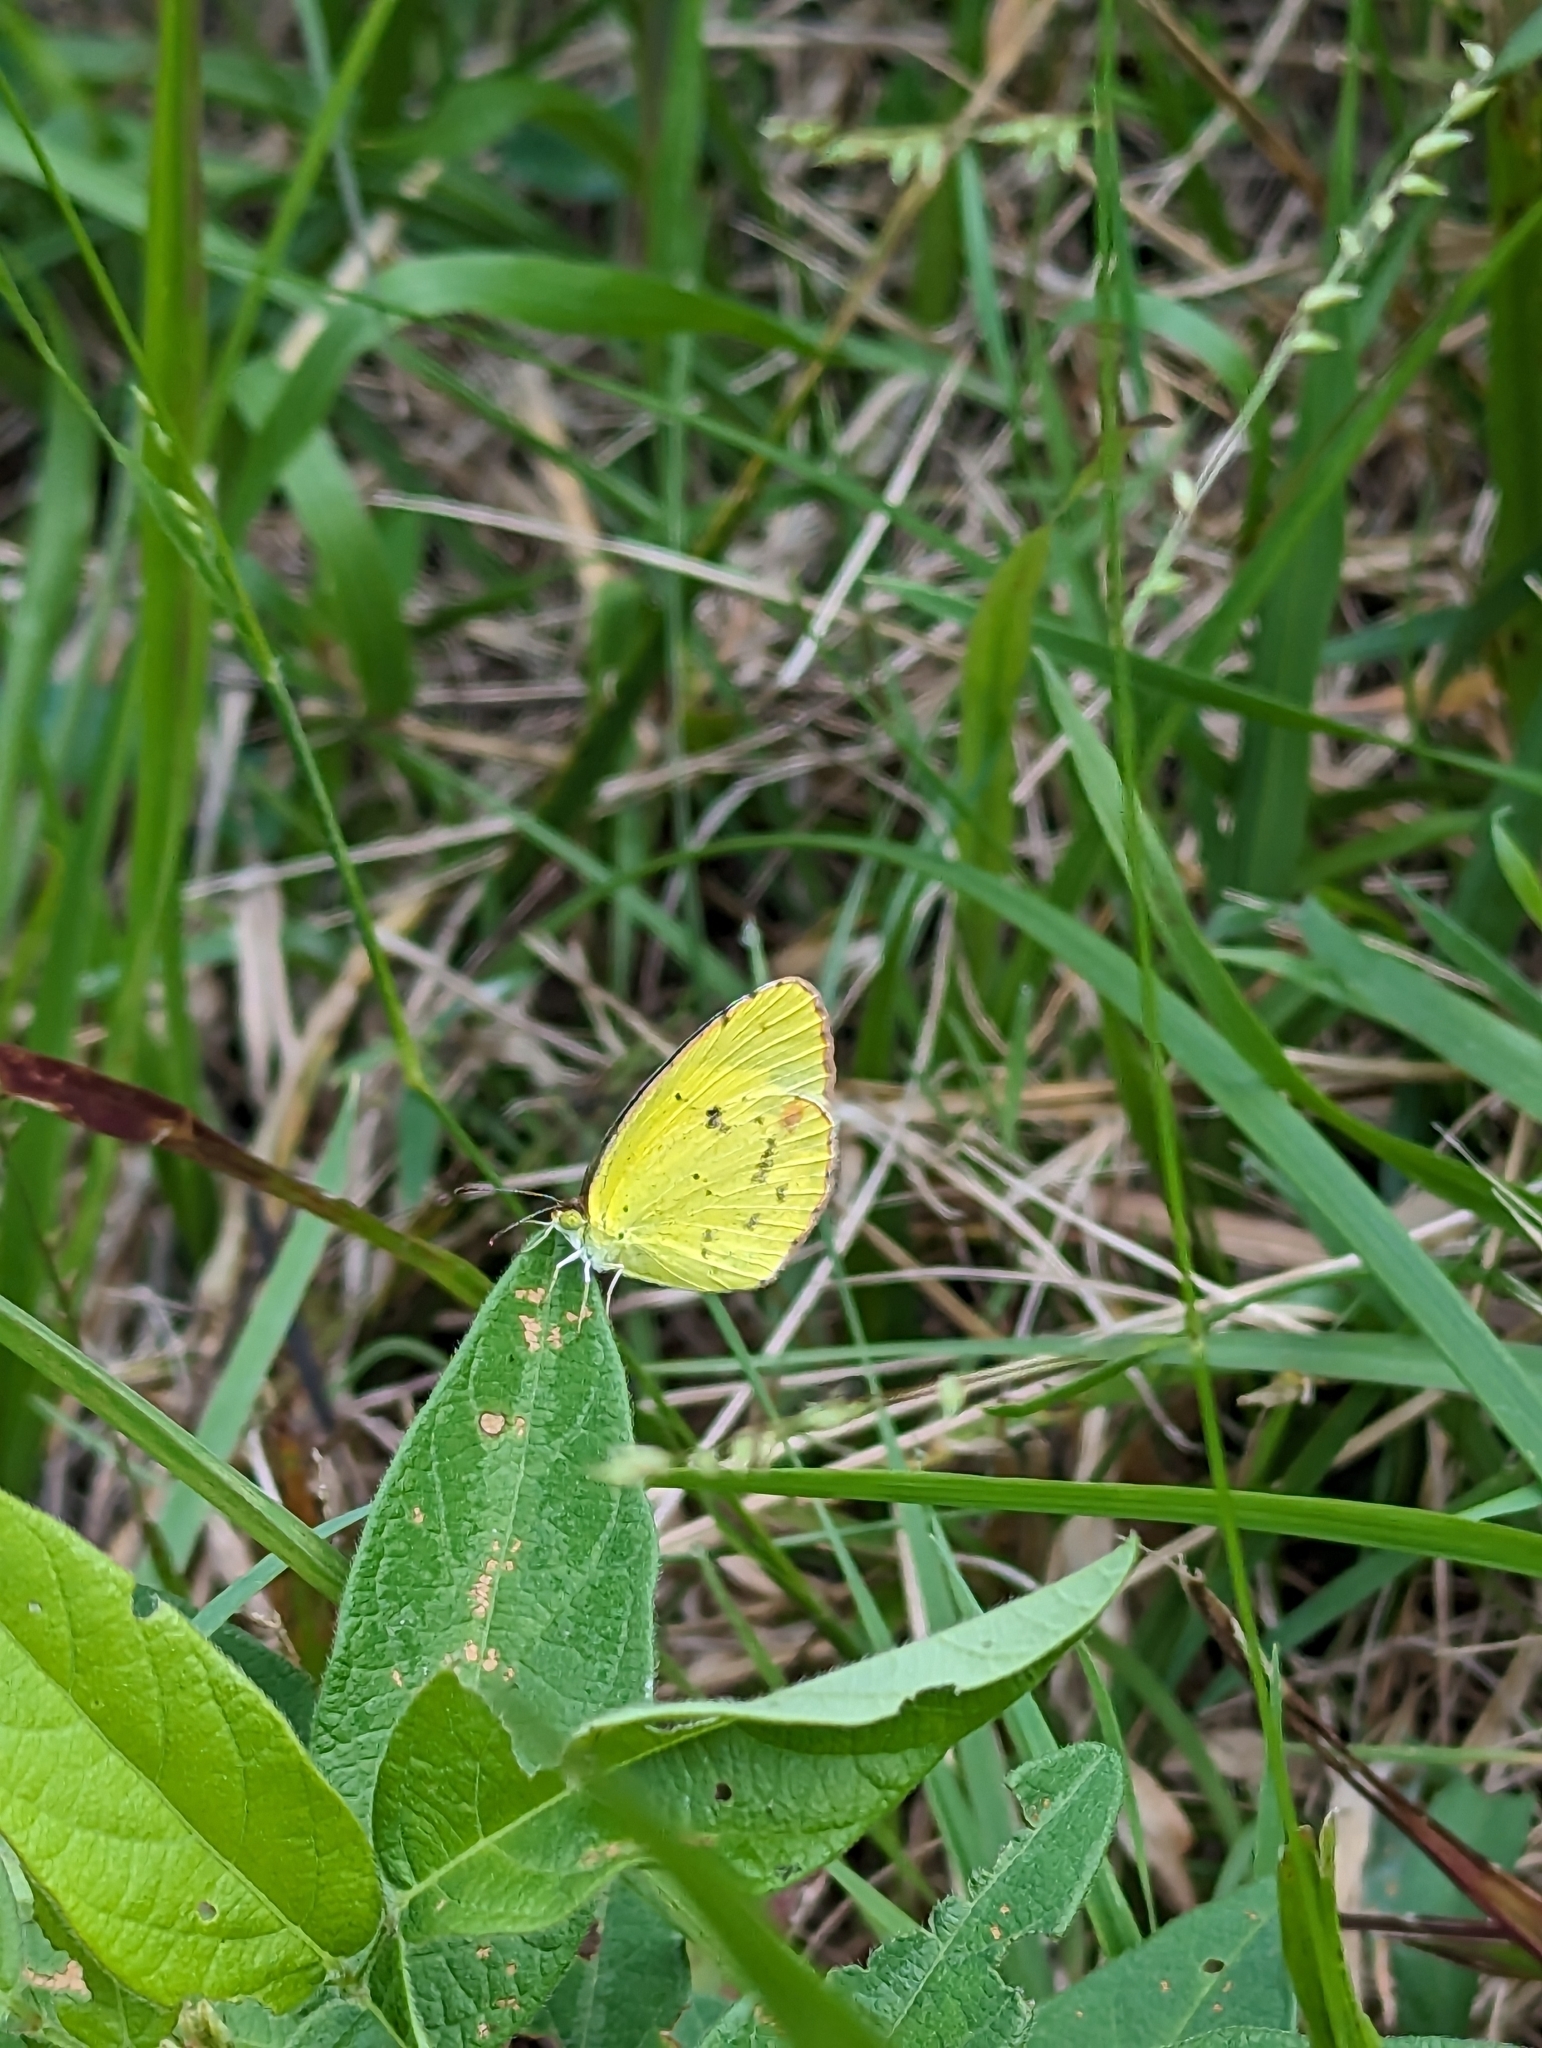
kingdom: Animalia
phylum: Arthropoda
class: Insecta
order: Lepidoptera
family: Pieridae
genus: Pyrisitia
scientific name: Pyrisitia lisa
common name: Little yellow
